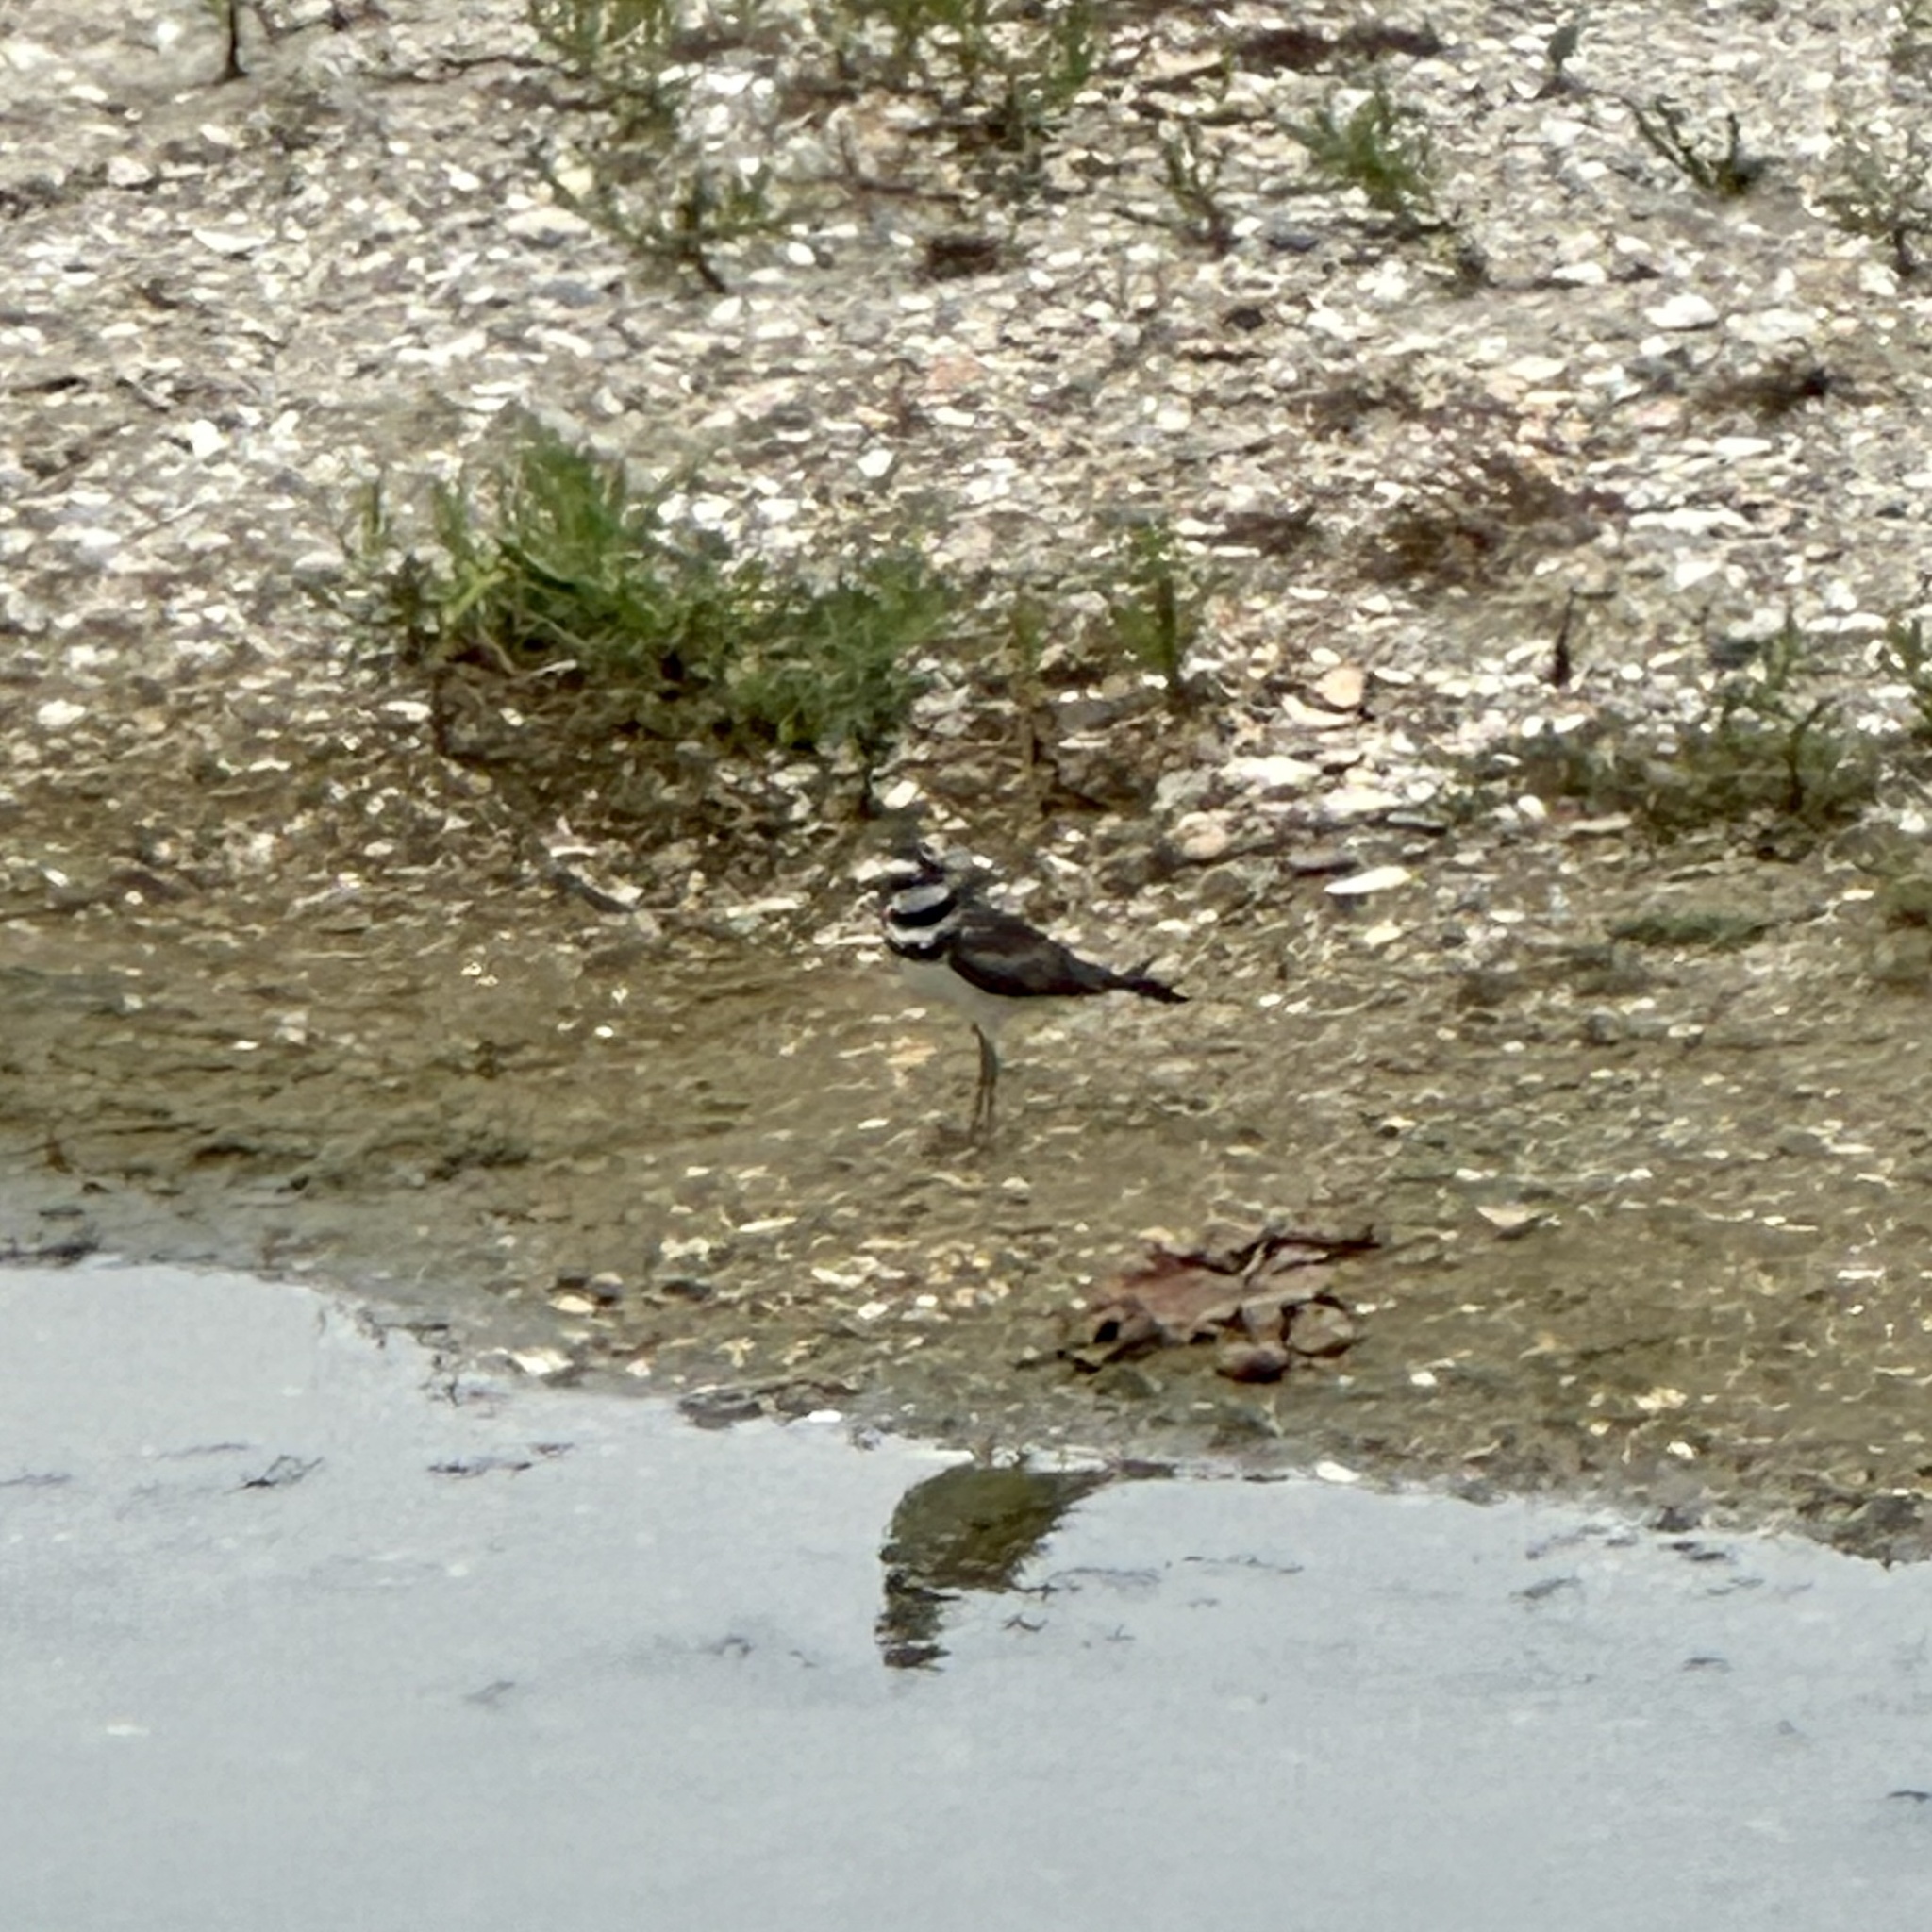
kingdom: Animalia
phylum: Chordata
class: Aves
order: Charadriiformes
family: Charadriidae
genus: Charadrius
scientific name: Charadrius vociferus
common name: Killdeer
